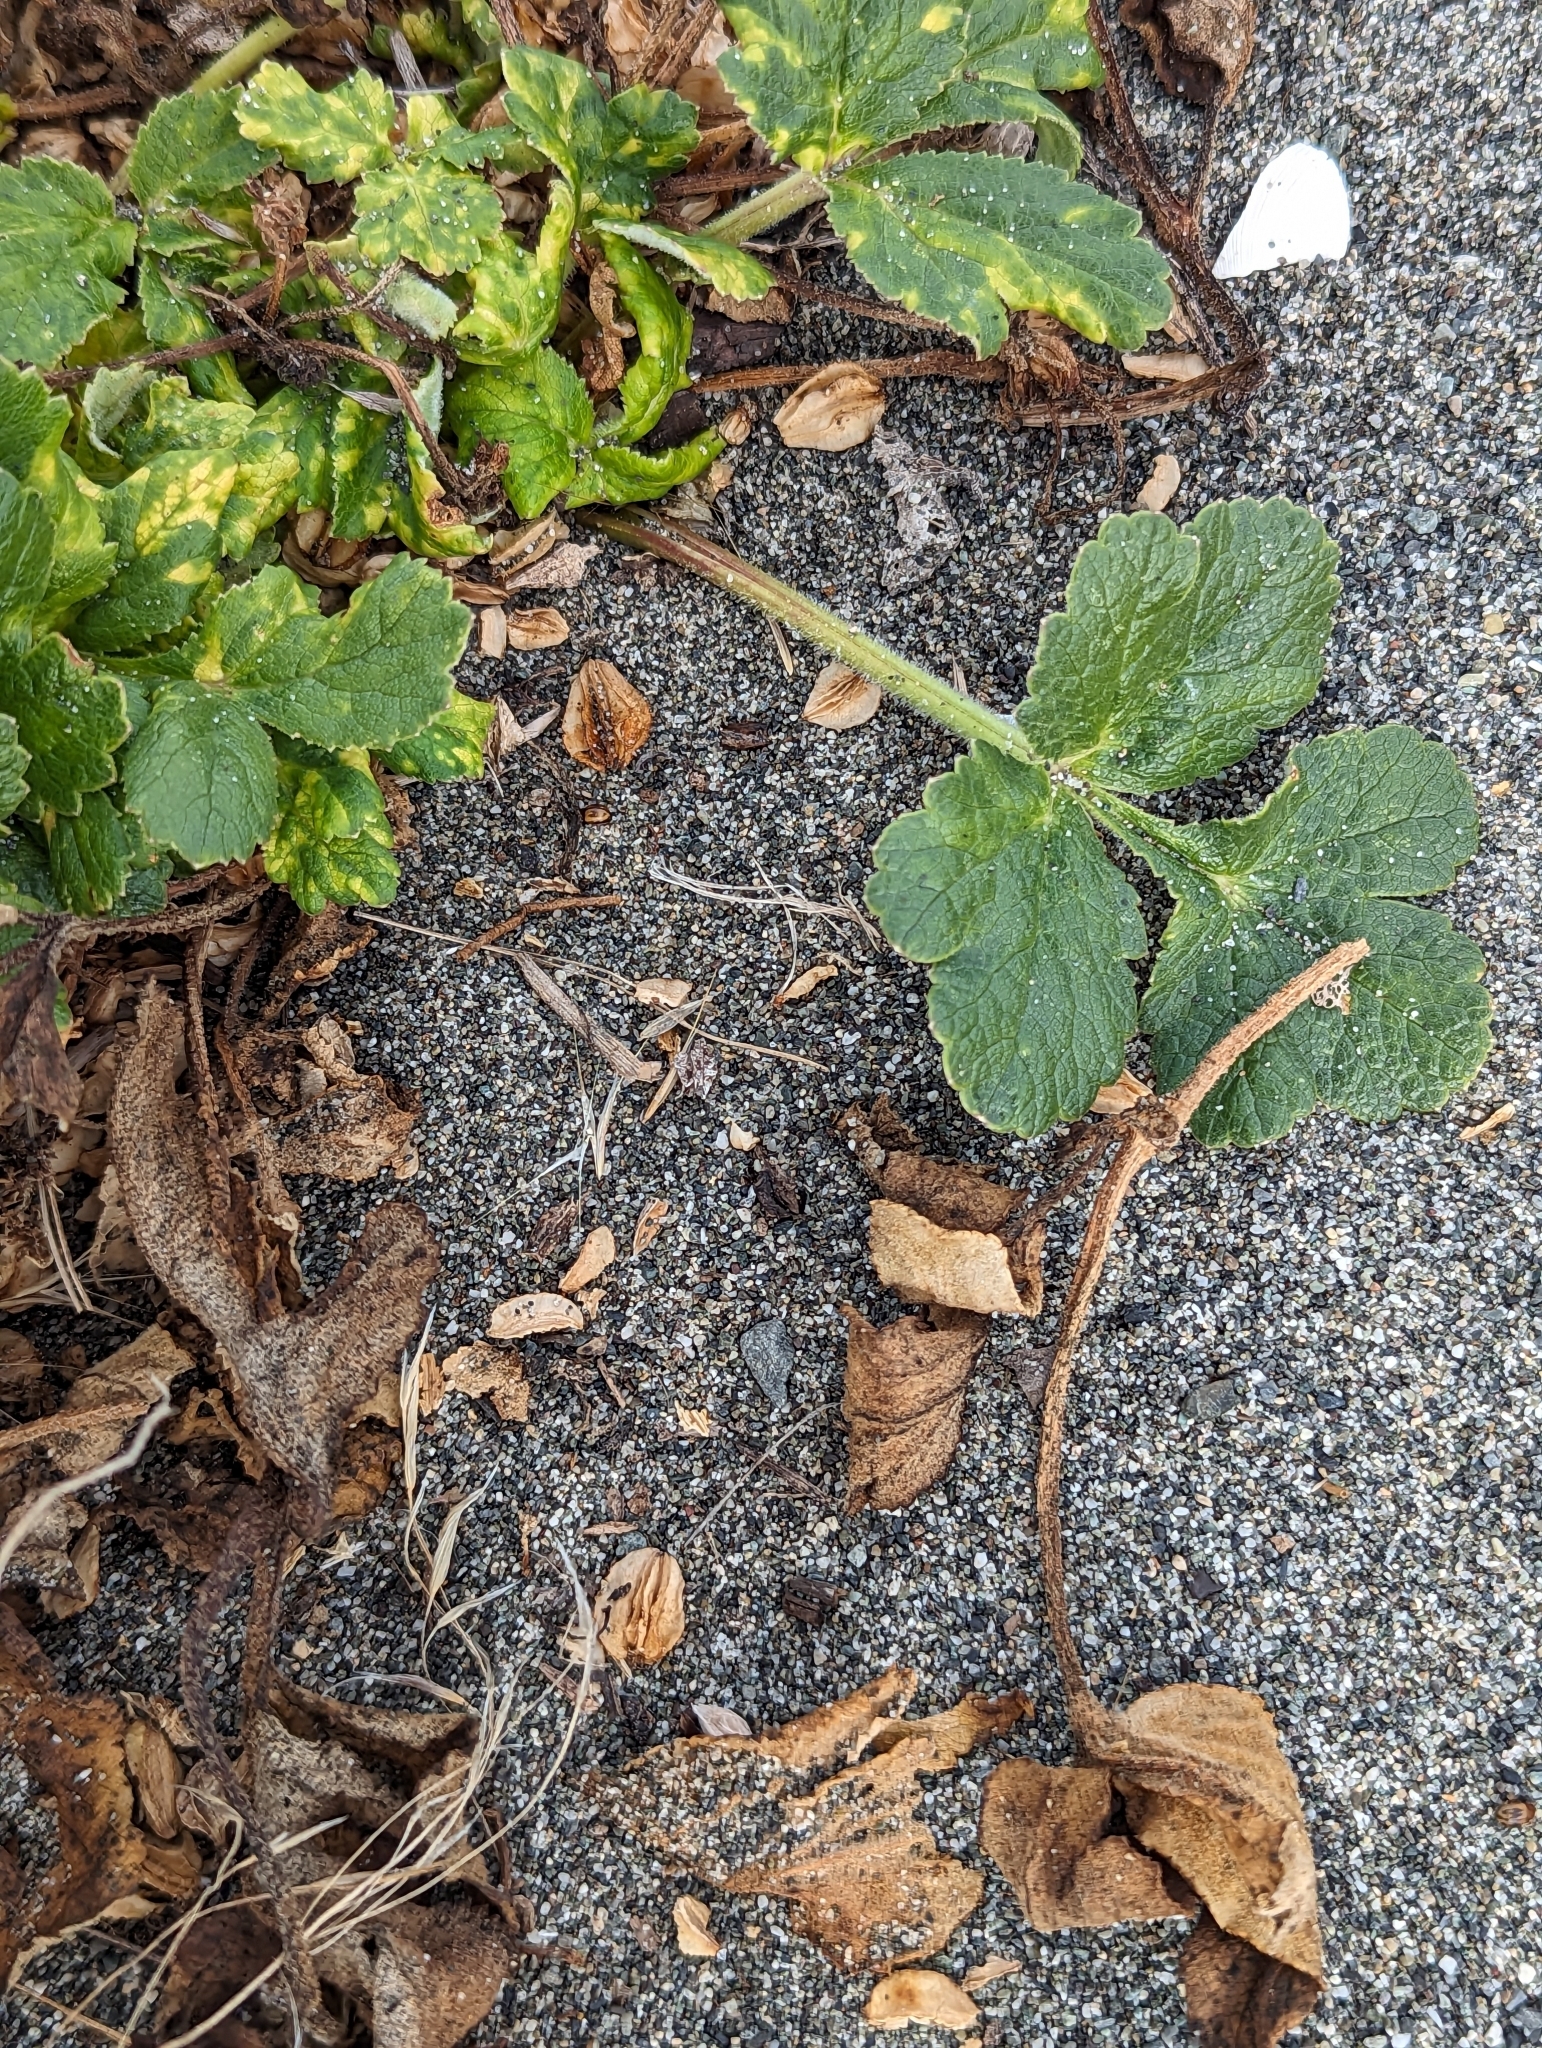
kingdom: Plantae
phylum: Tracheophyta
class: Magnoliopsida
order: Apiales
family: Apiaceae
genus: Angelica
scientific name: Angelica leiocarpa
